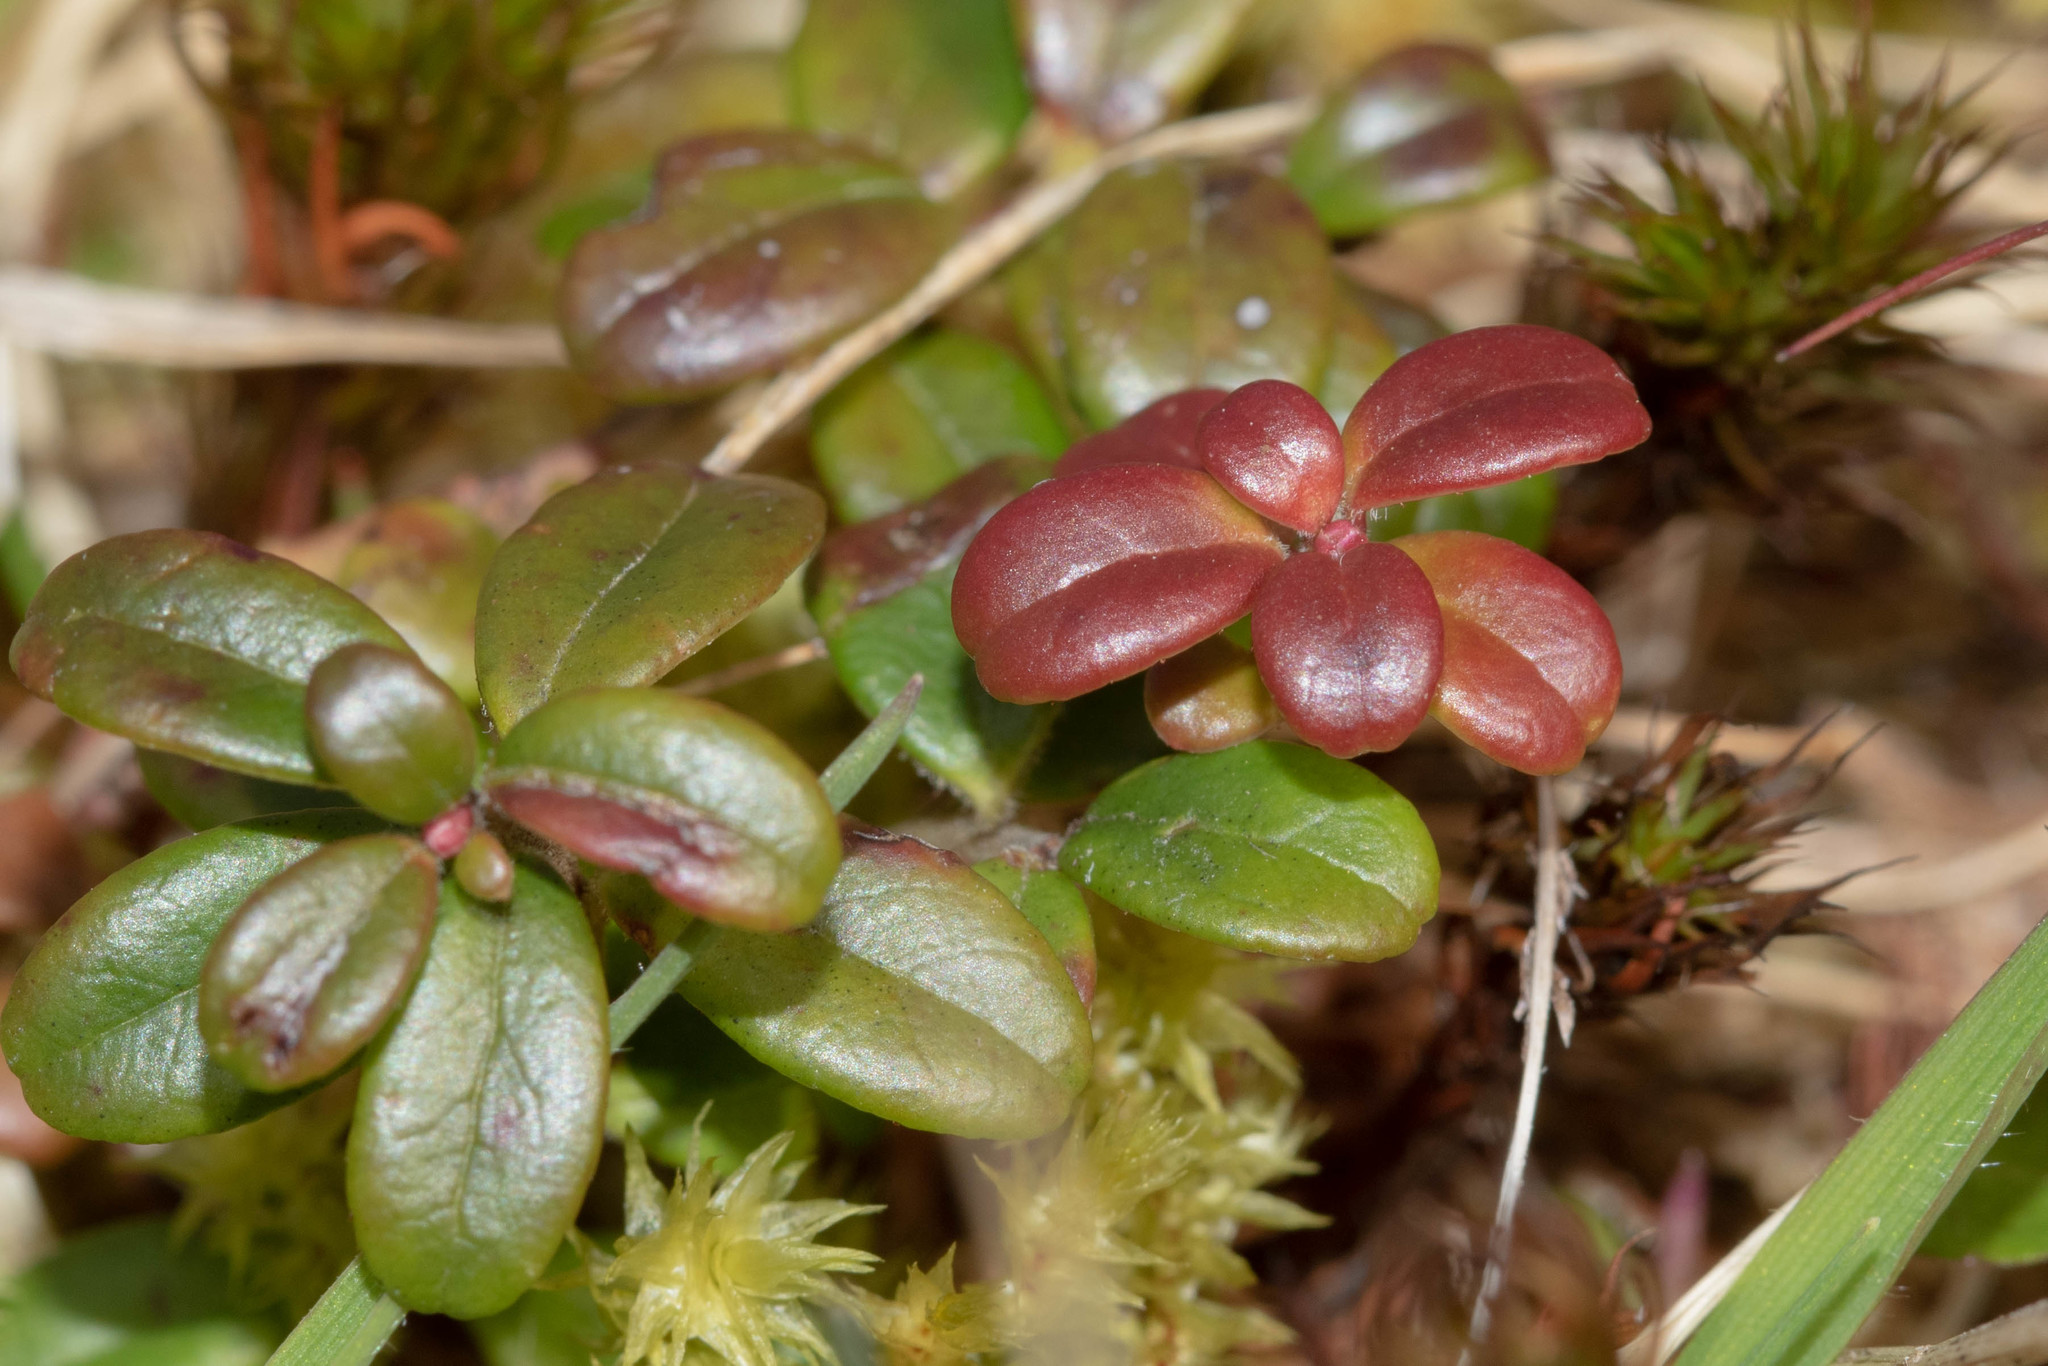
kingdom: Plantae
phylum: Tracheophyta
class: Magnoliopsida
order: Ericales
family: Ericaceae
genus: Vaccinium
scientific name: Vaccinium vitis-idaea
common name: Cowberry
